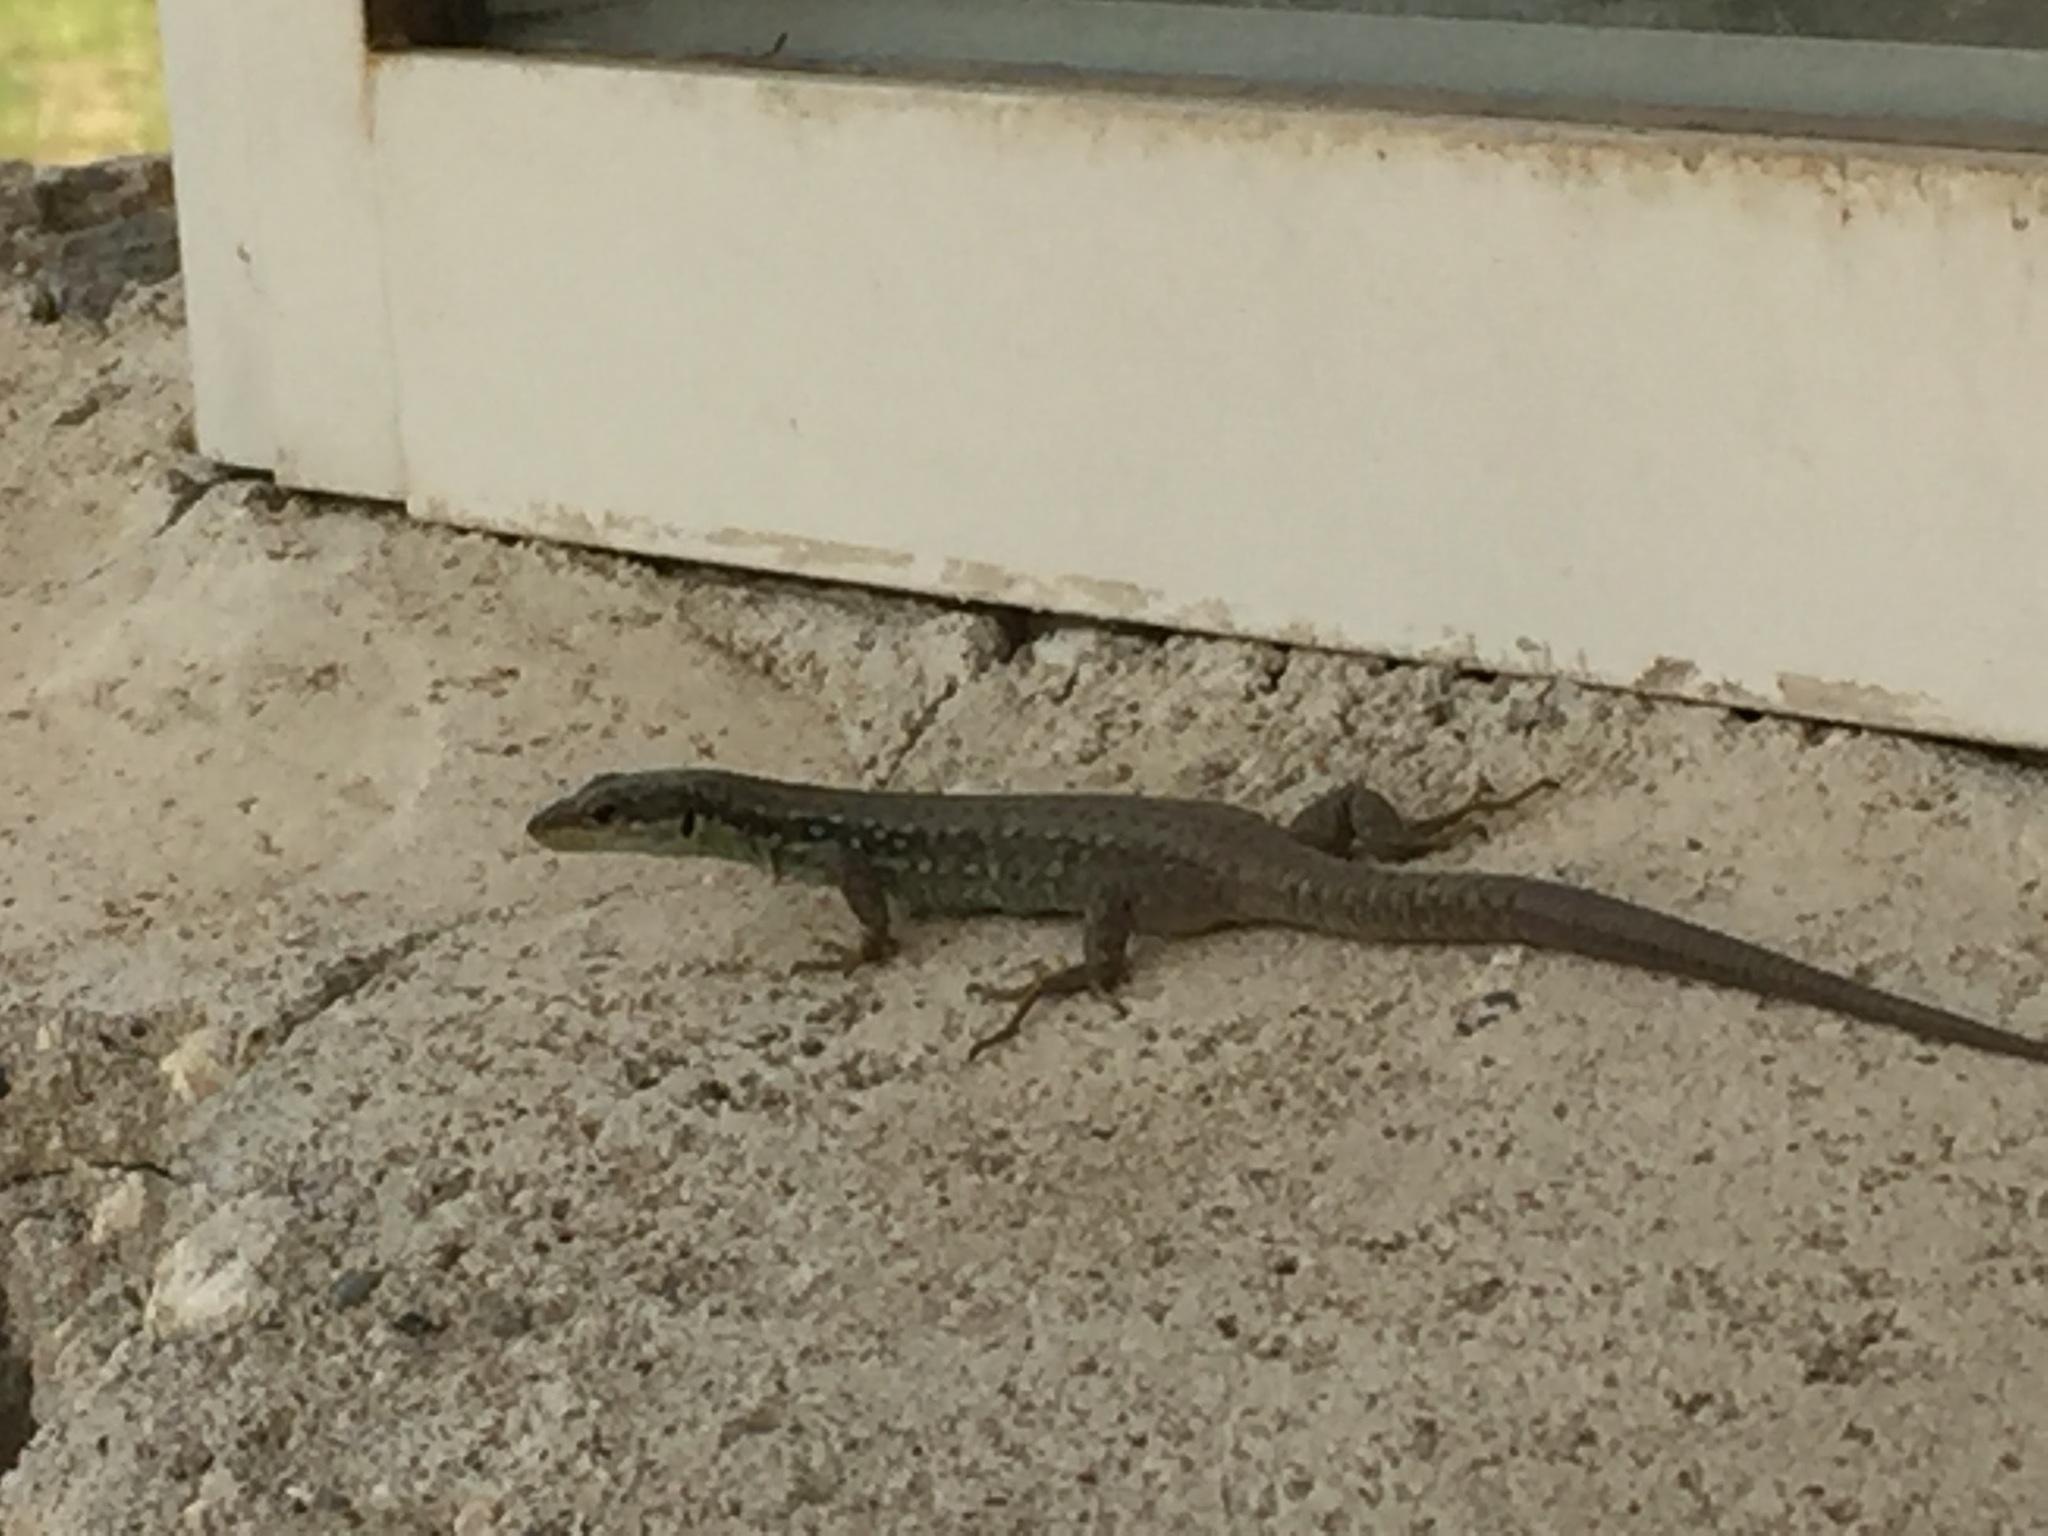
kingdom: Animalia
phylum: Chordata
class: Squamata
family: Lacertidae
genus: Darevskia
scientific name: Darevskia raddei
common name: Radde's lizard
